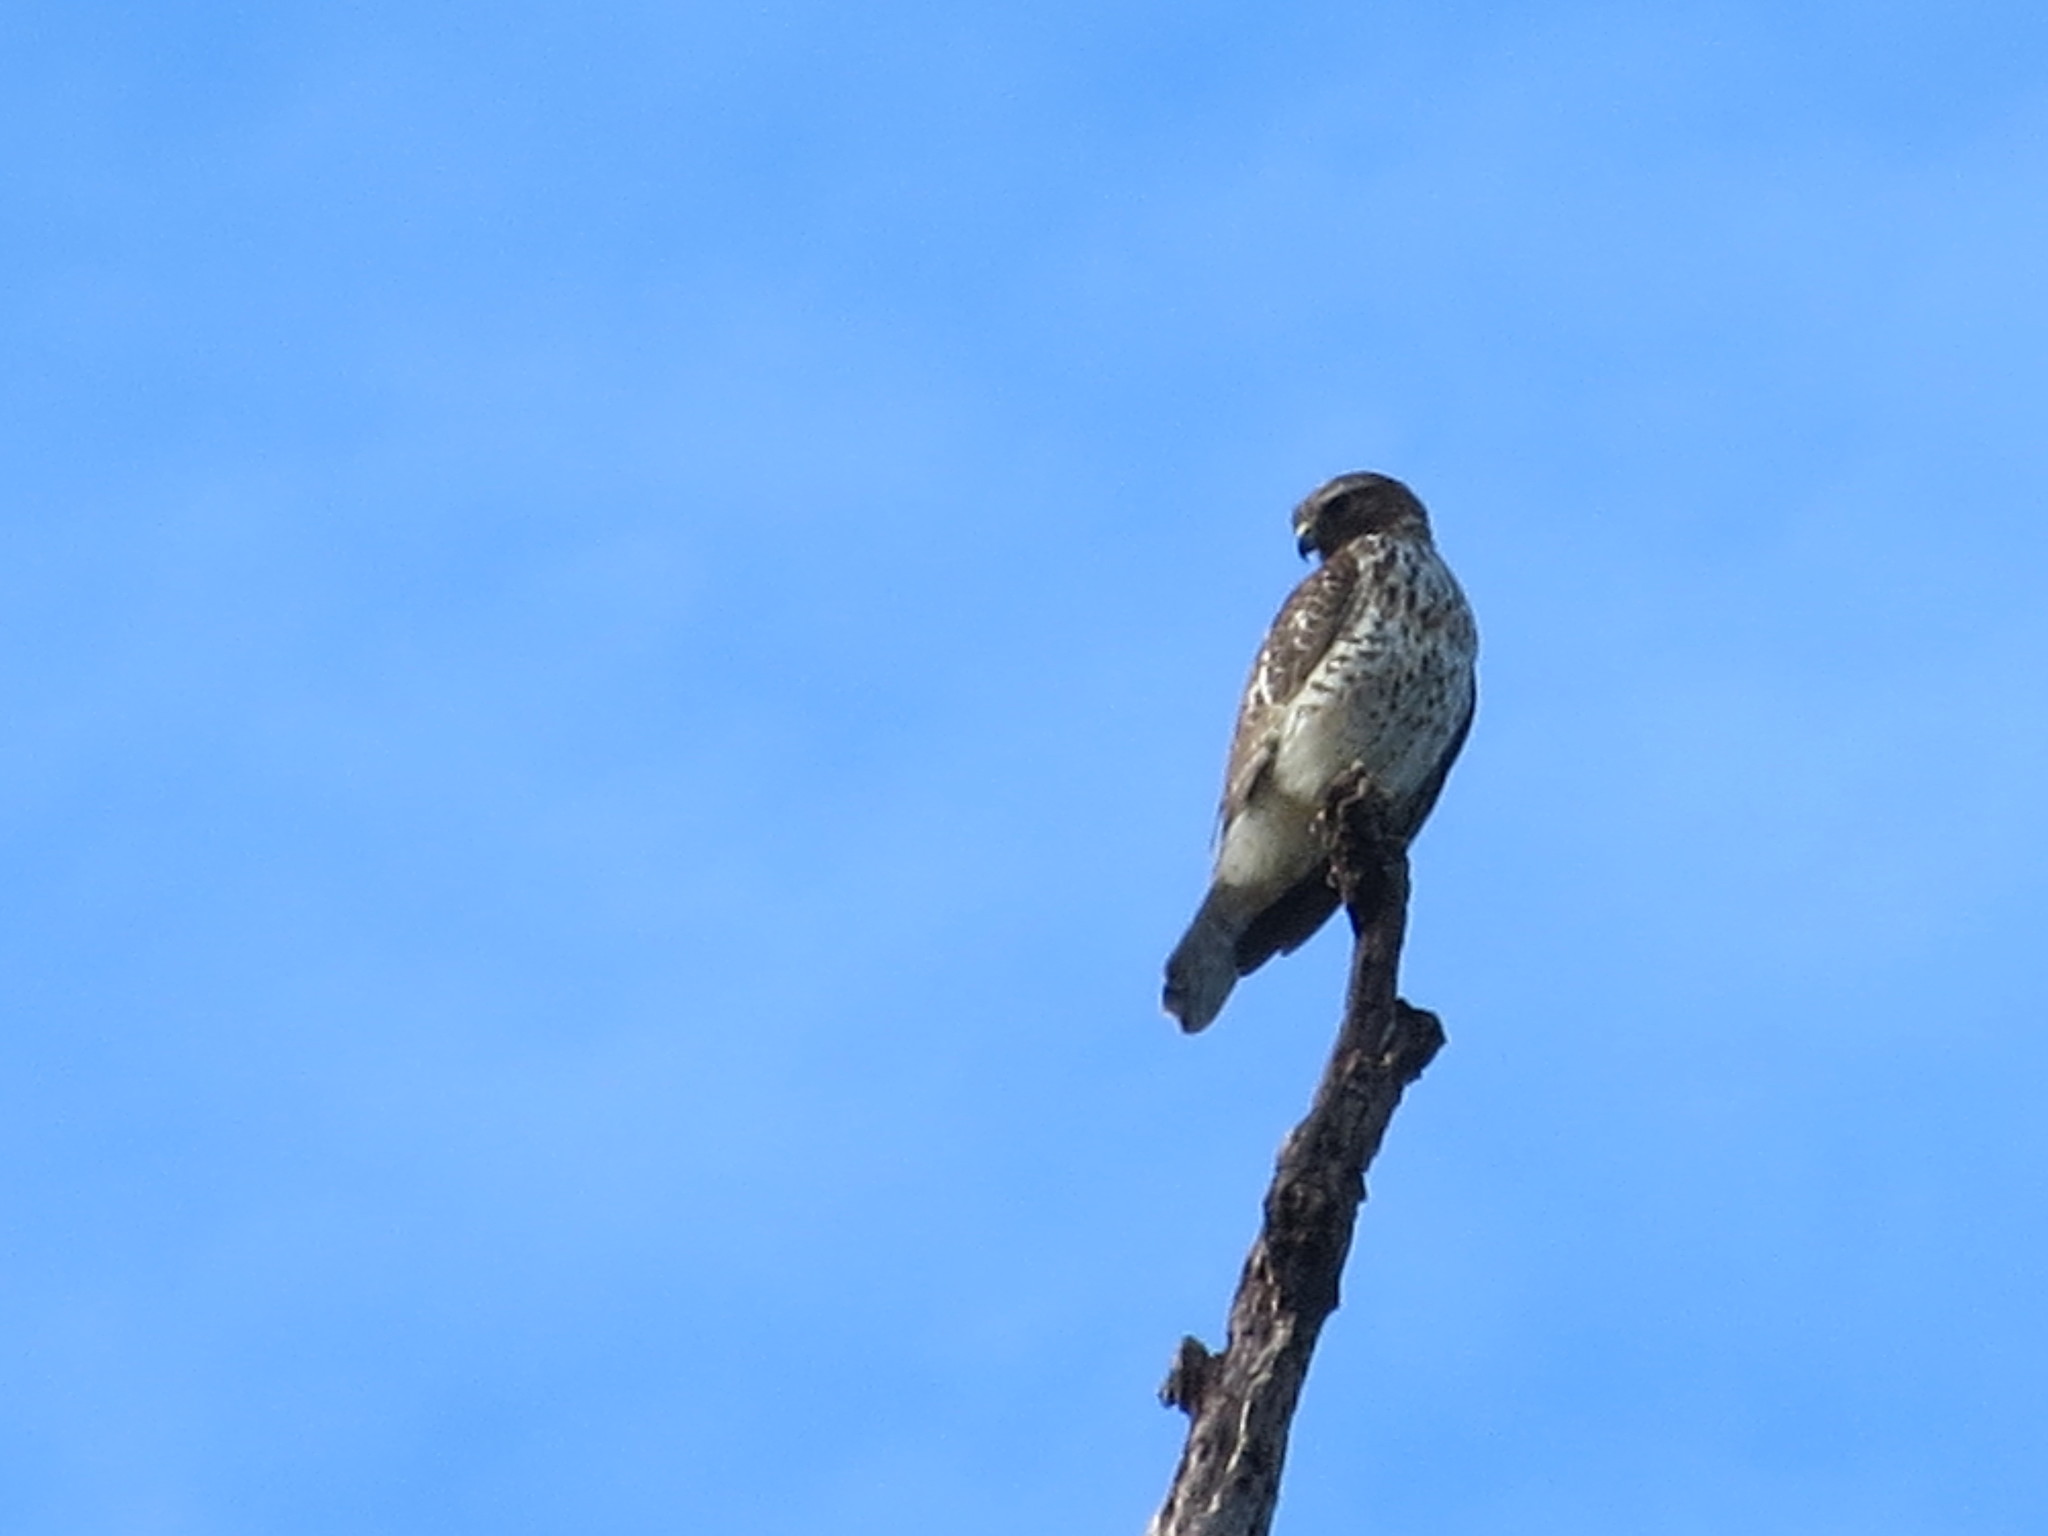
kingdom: Animalia
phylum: Chordata
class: Aves
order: Accipitriformes
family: Accipitridae
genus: Buteo
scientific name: Buteo lineatus
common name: Red-shouldered hawk
